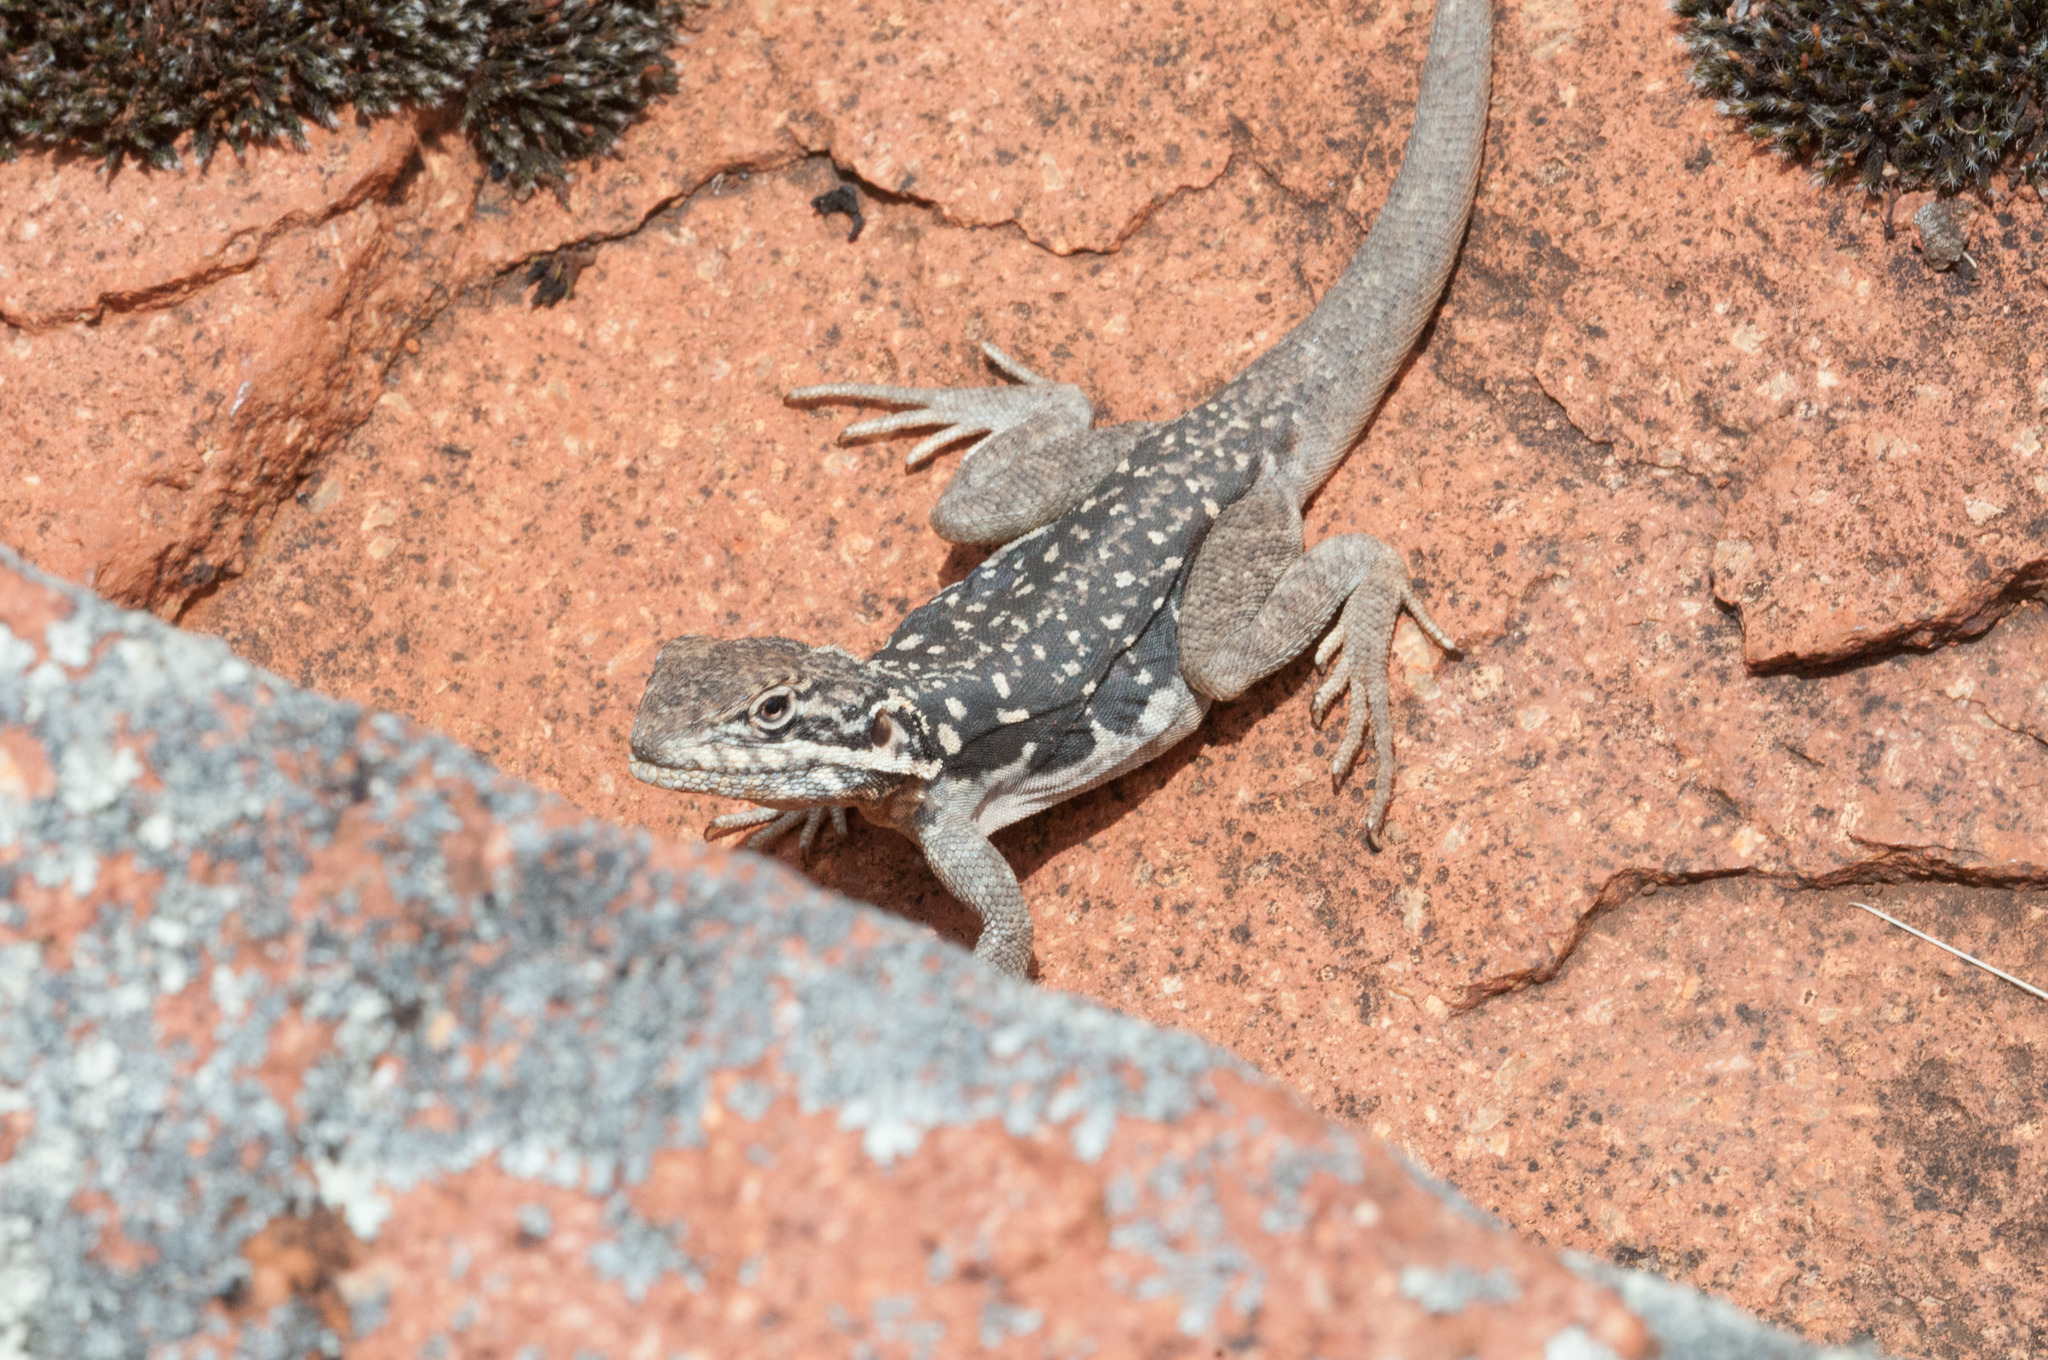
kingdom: Animalia
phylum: Chordata
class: Squamata
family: Agamidae
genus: Ctenophorus
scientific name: Ctenophorus fionni
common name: Peninsula crevis-dragon
